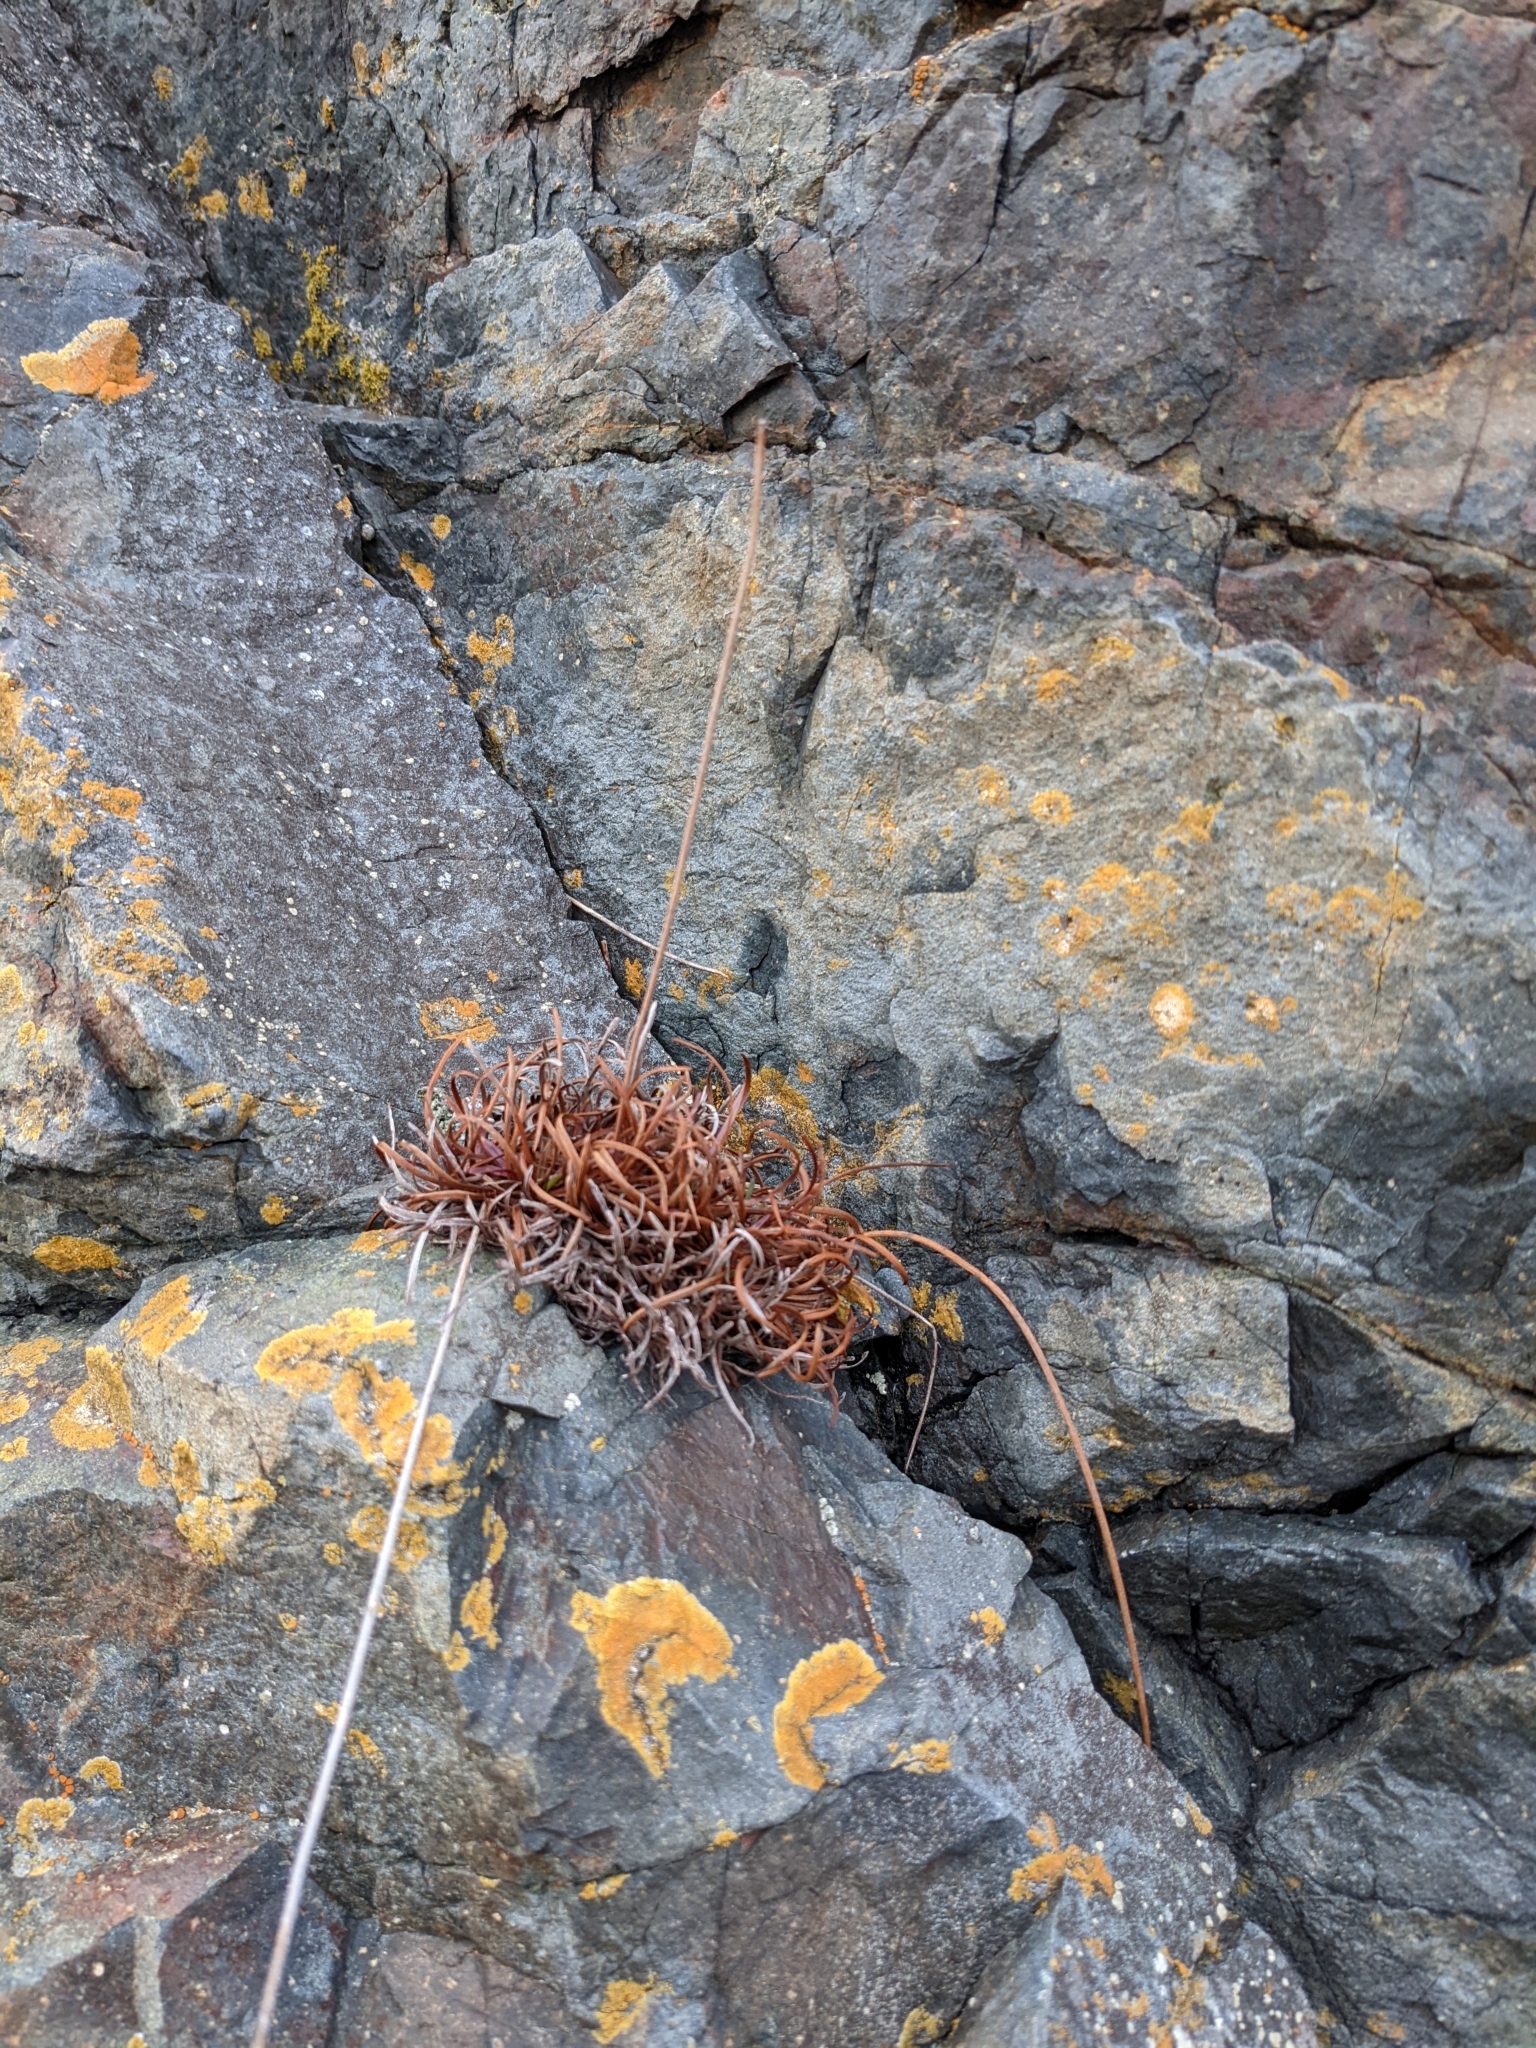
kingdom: Plantae
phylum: Tracheophyta
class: Magnoliopsida
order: Caryophyllales
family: Plumbaginaceae
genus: Armeria
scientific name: Armeria maritima
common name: Thrift
